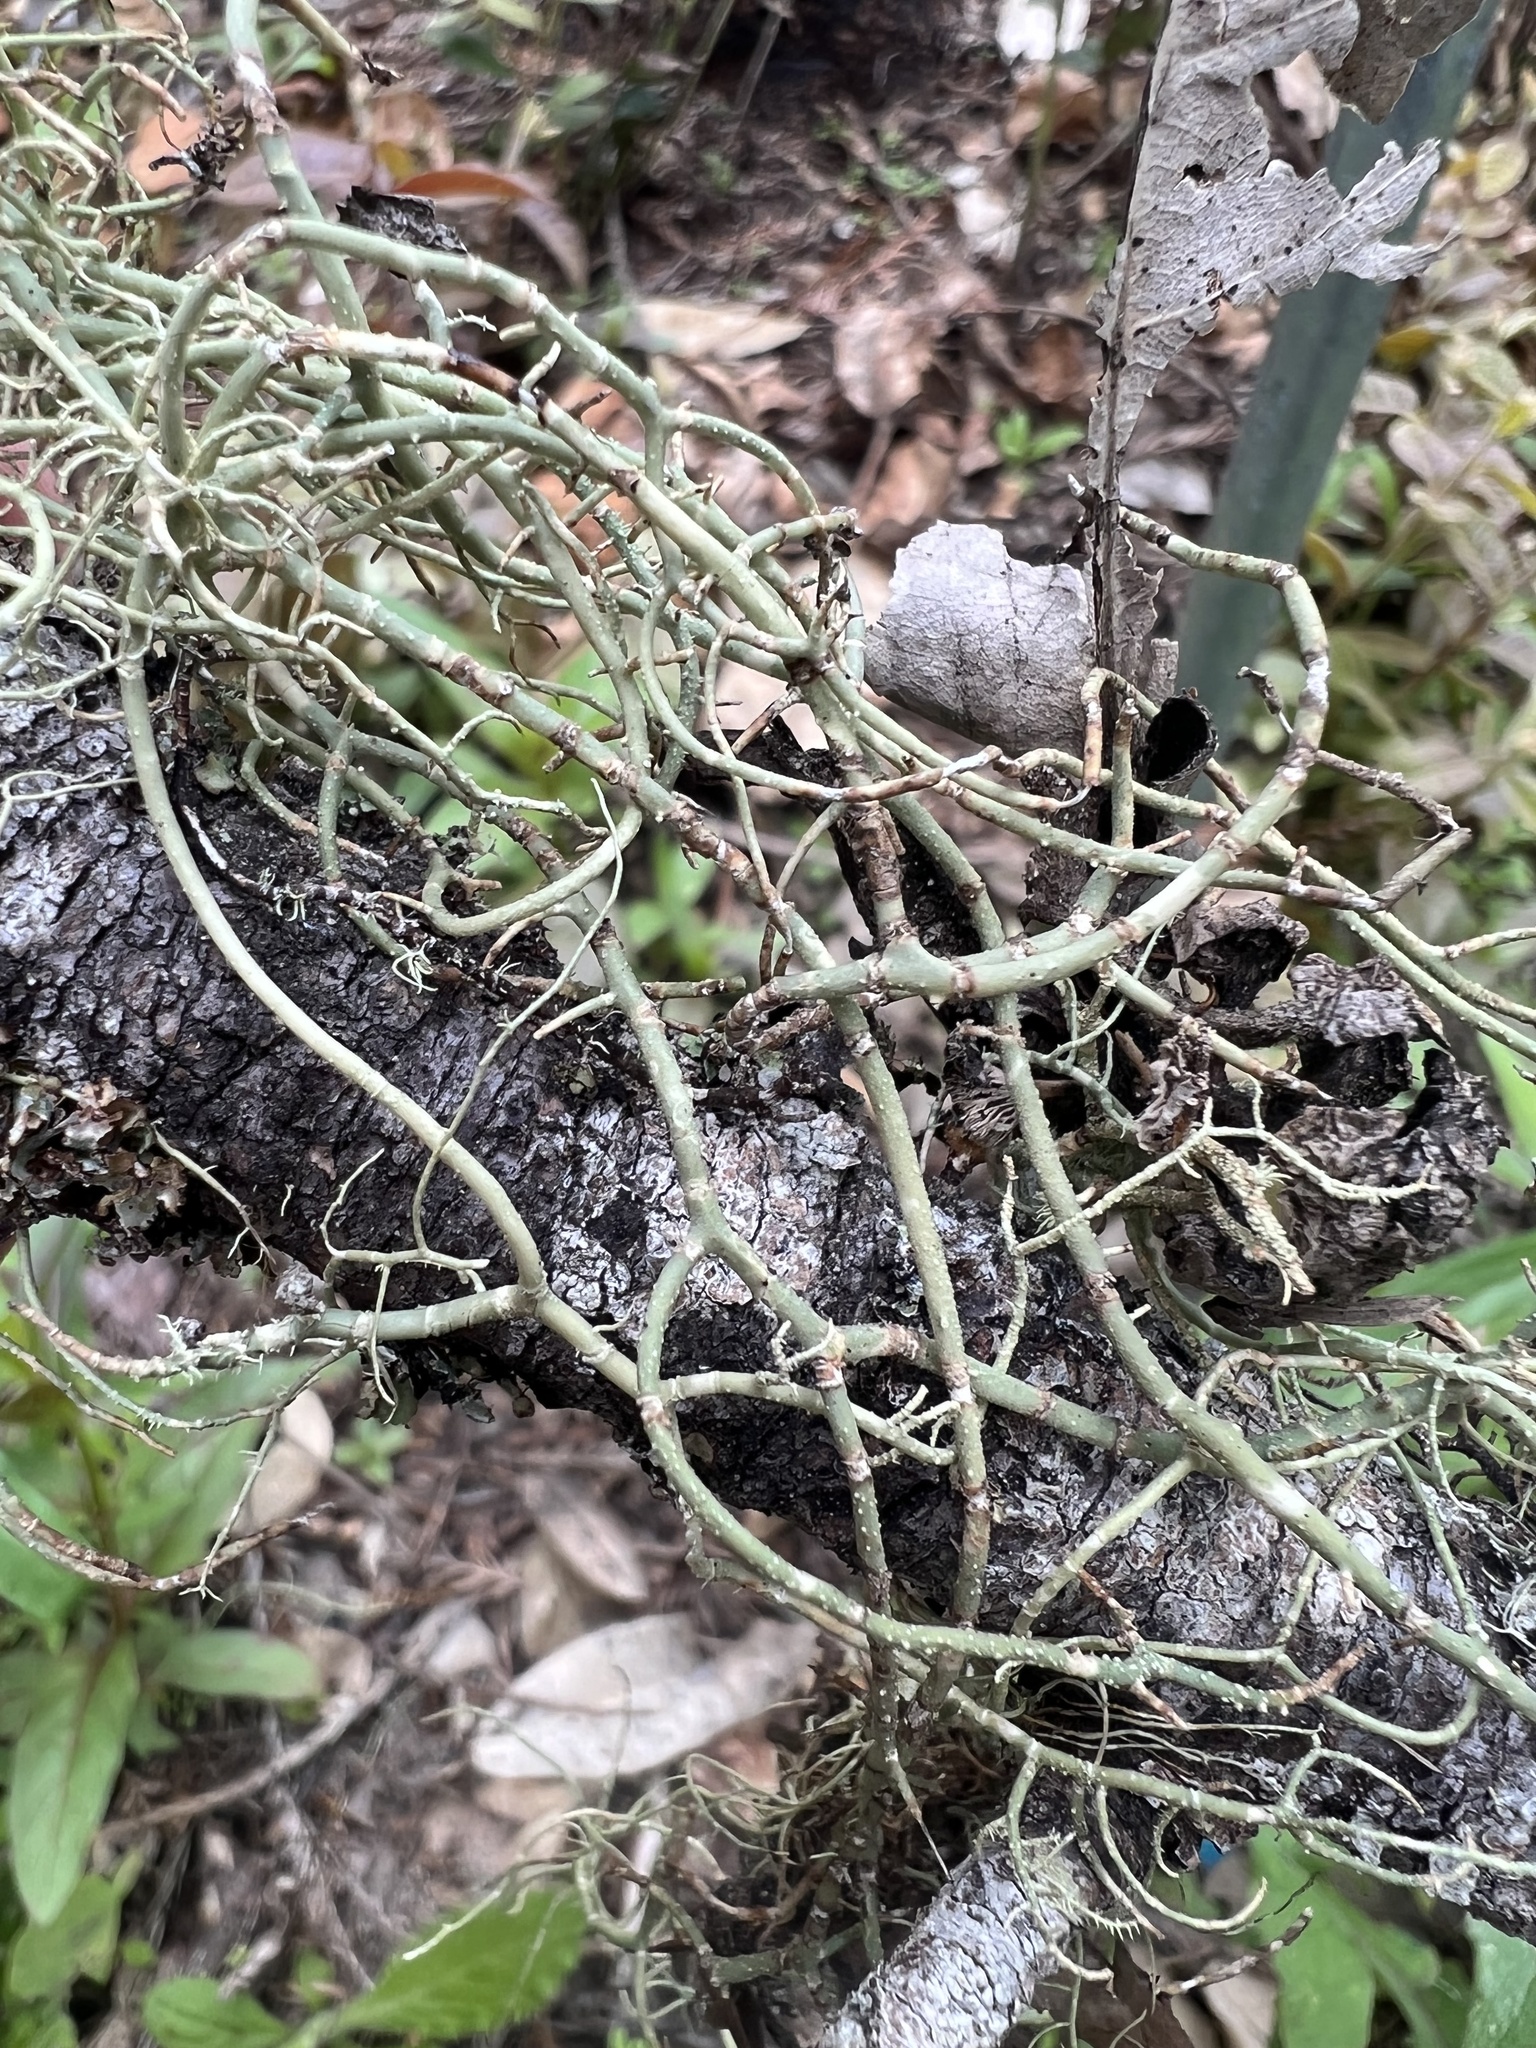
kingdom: Fungi
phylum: Ascomycota
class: Lecanoromycetes
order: Lecanorales
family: Parmeliaceae
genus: Usnea
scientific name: Usnea ceratina
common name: Warty beard lichen
